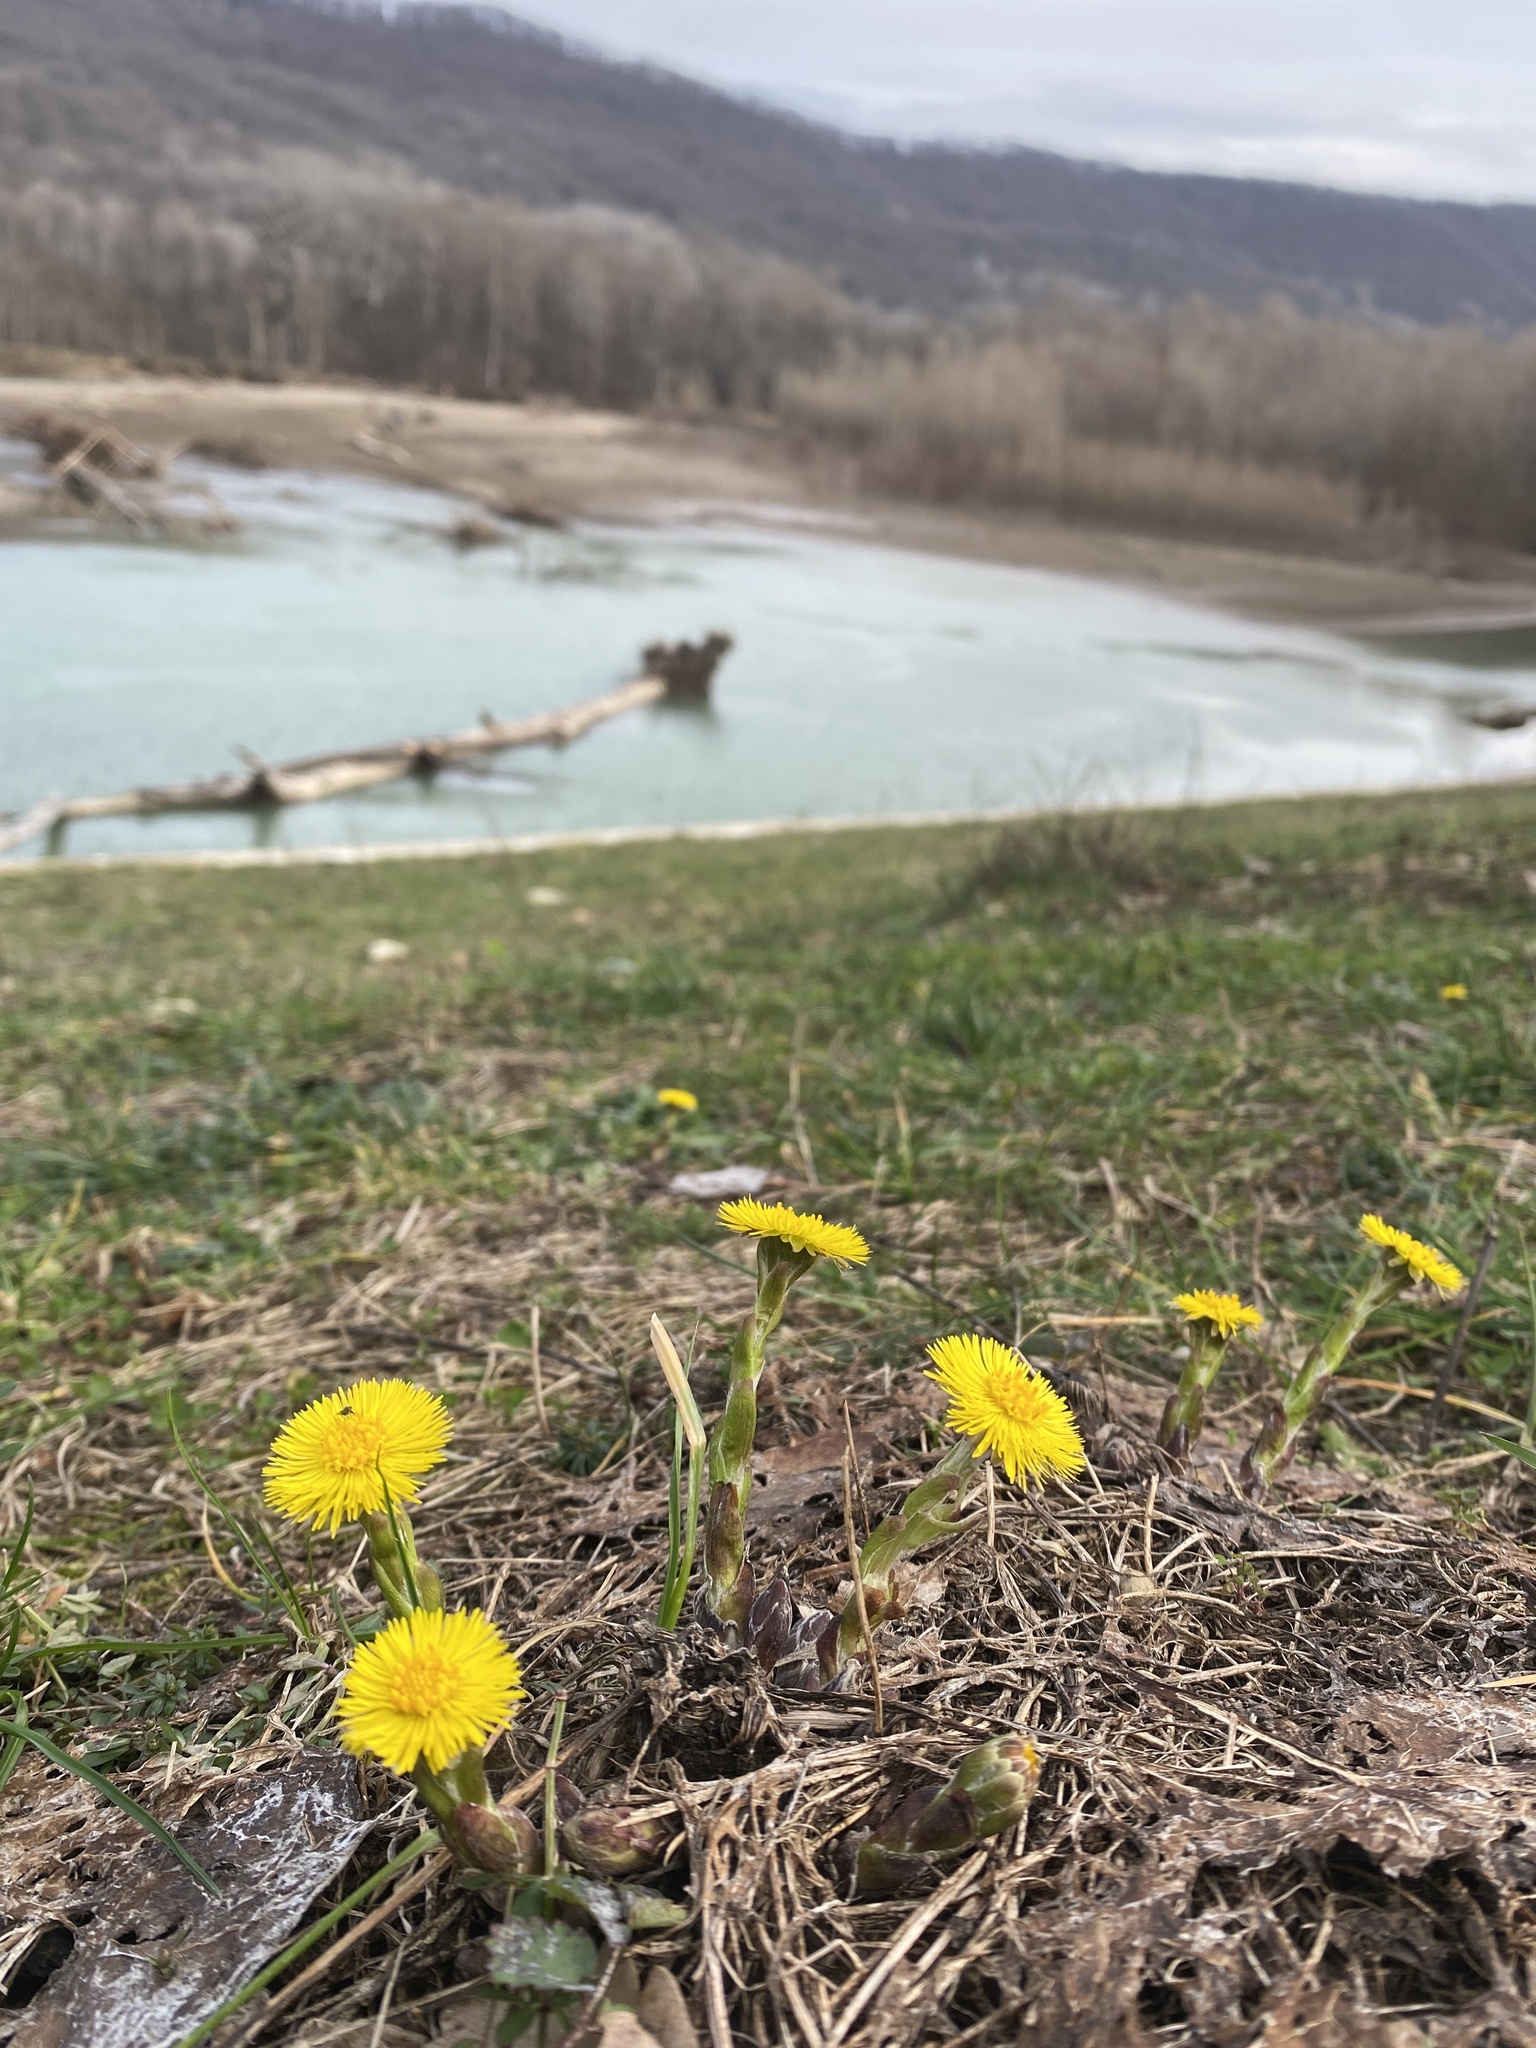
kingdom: Plantae
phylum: Tracheophyta
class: Magnoliopsida
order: Asterales
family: Asteraceae
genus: Tussilago
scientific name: Tussilago farfara
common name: Coltsfoot
